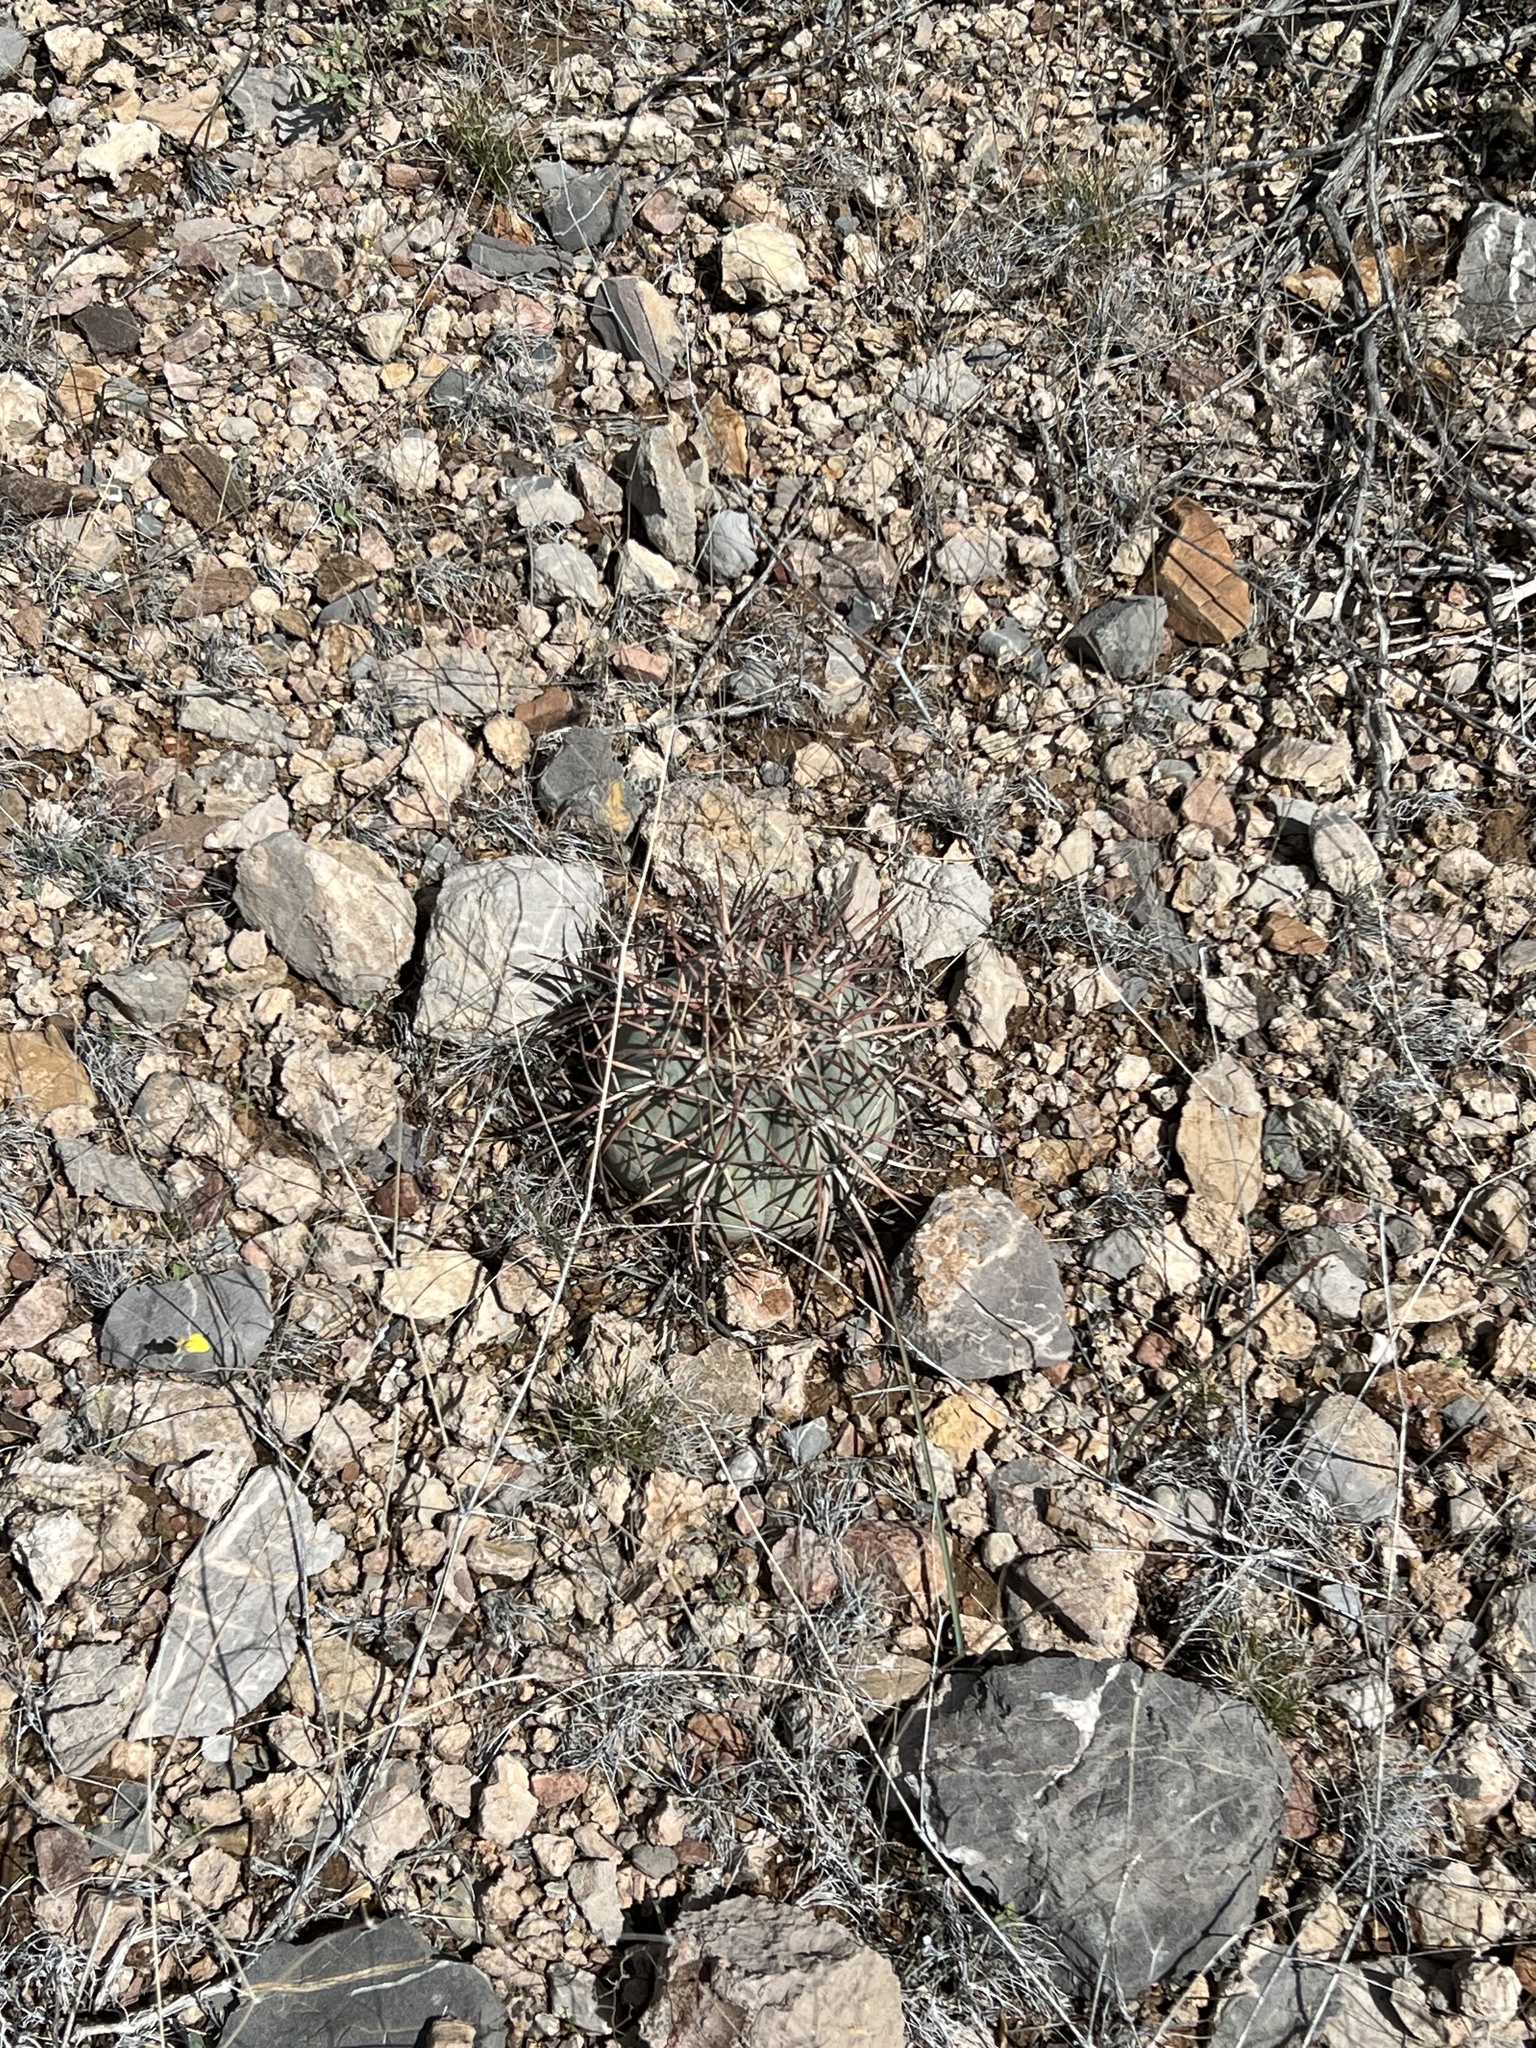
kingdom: Plantae
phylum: Tracheophyta
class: Magnoliopsida
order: Caryophyllales
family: Cactaceae
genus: Echinocactus
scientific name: Echinocactus horizonthalonius
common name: Devilshead
